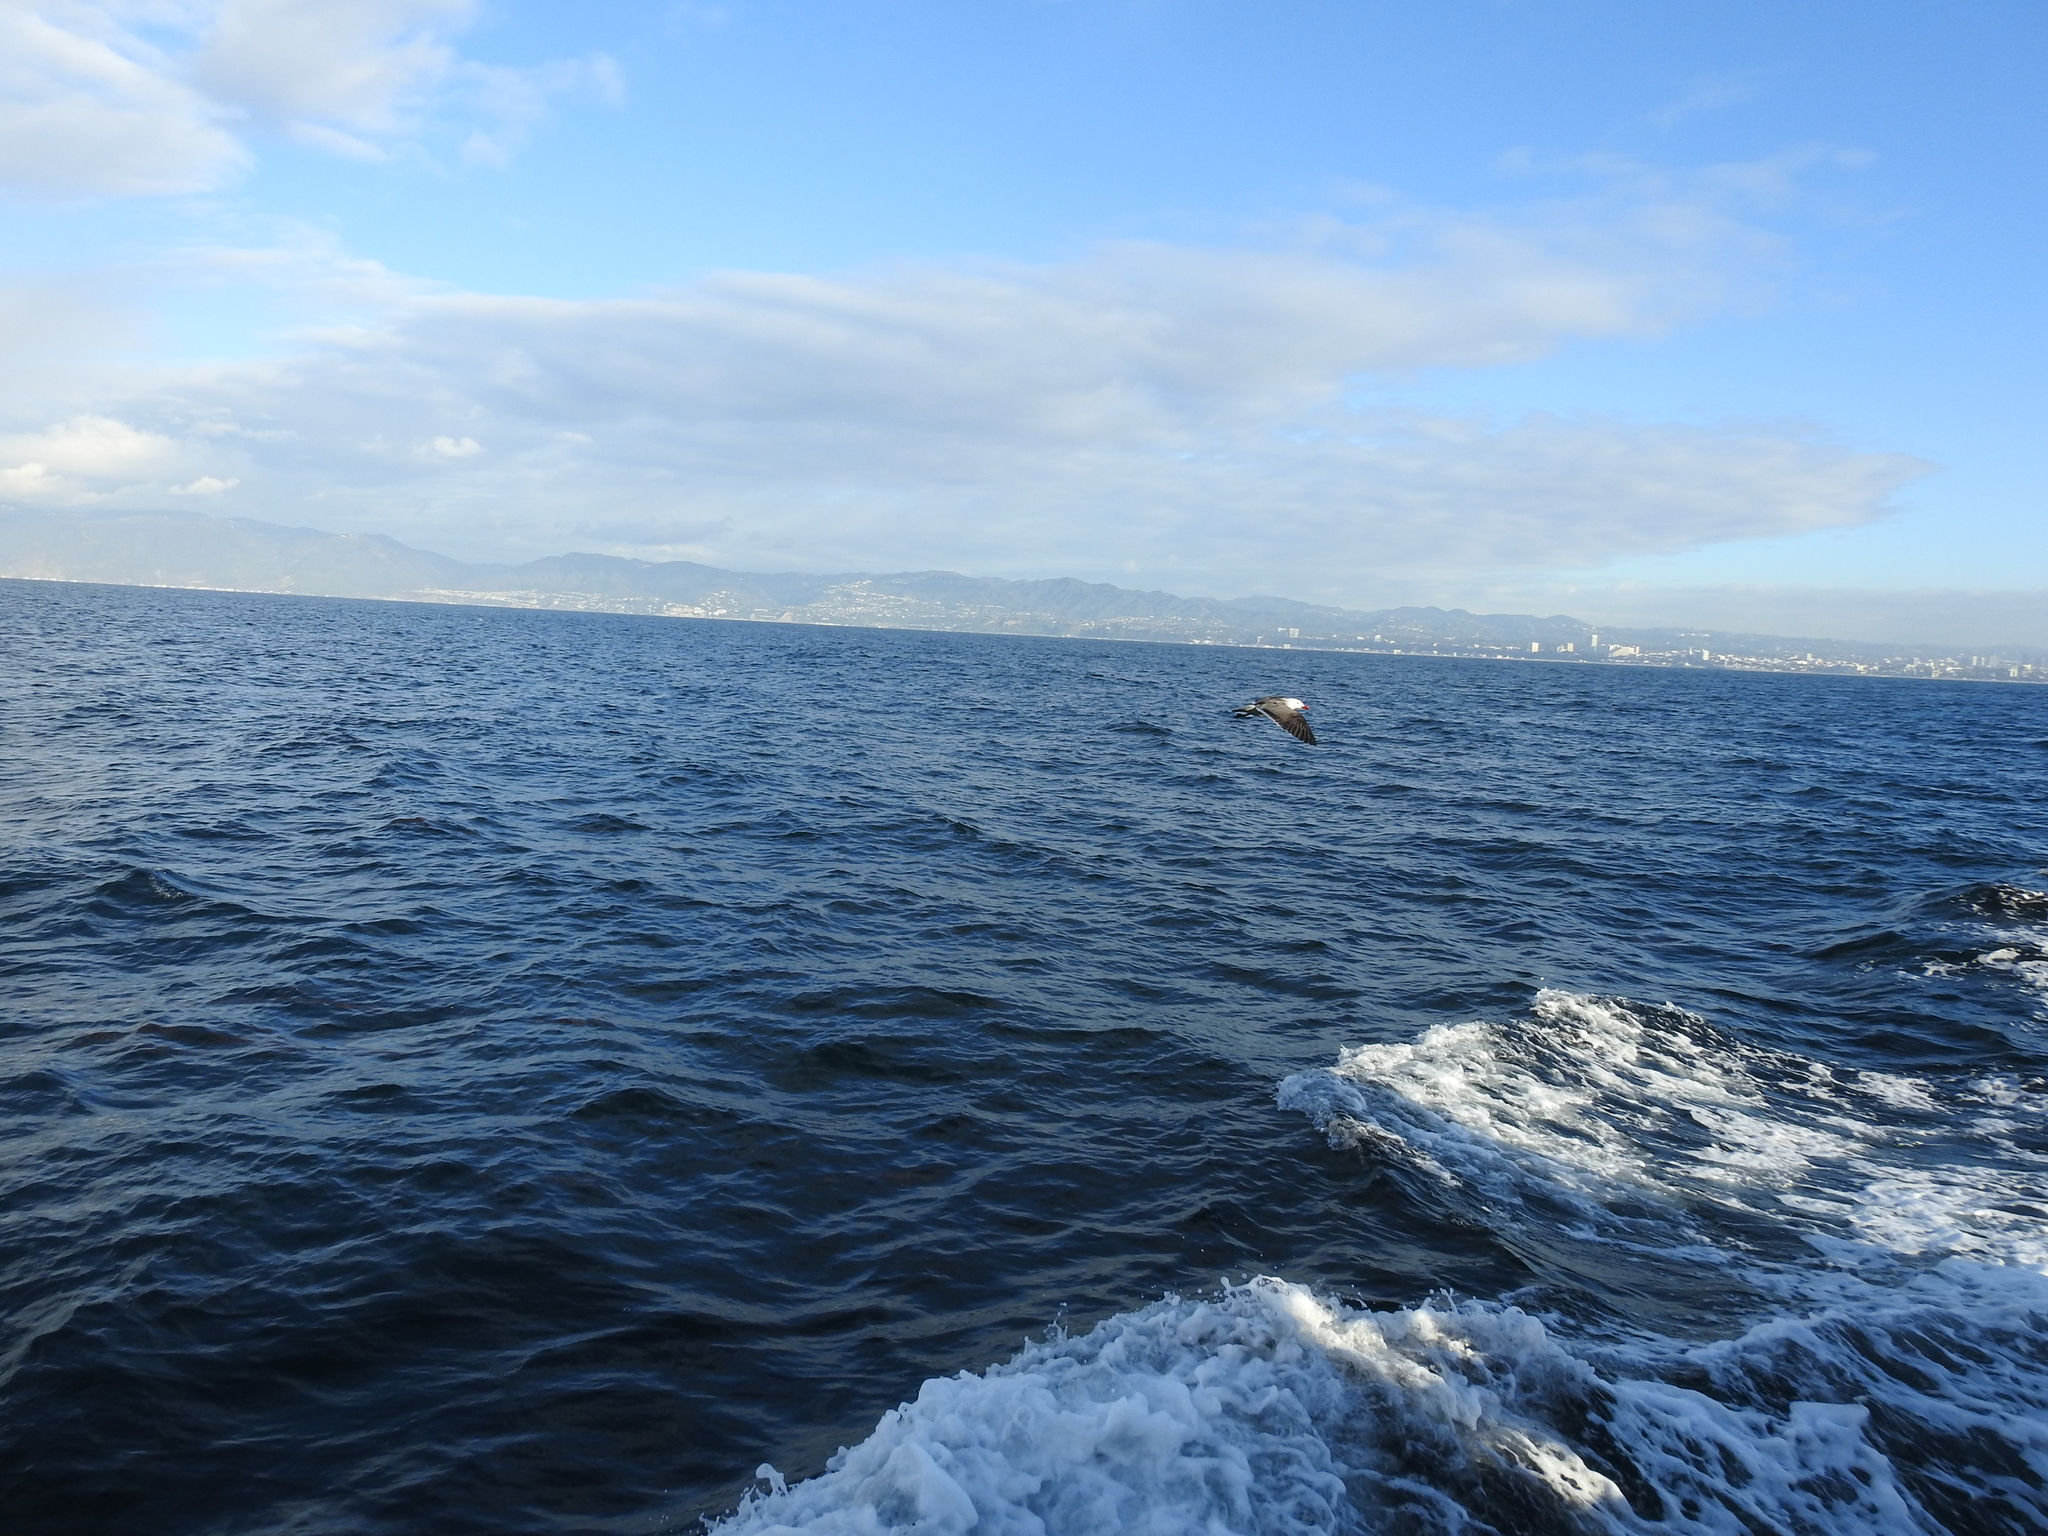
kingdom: Animalia
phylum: Chordata
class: Aves
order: Charadriiformes
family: Laridae
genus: Larus
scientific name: Larus heermanni
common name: Heermann's gull
